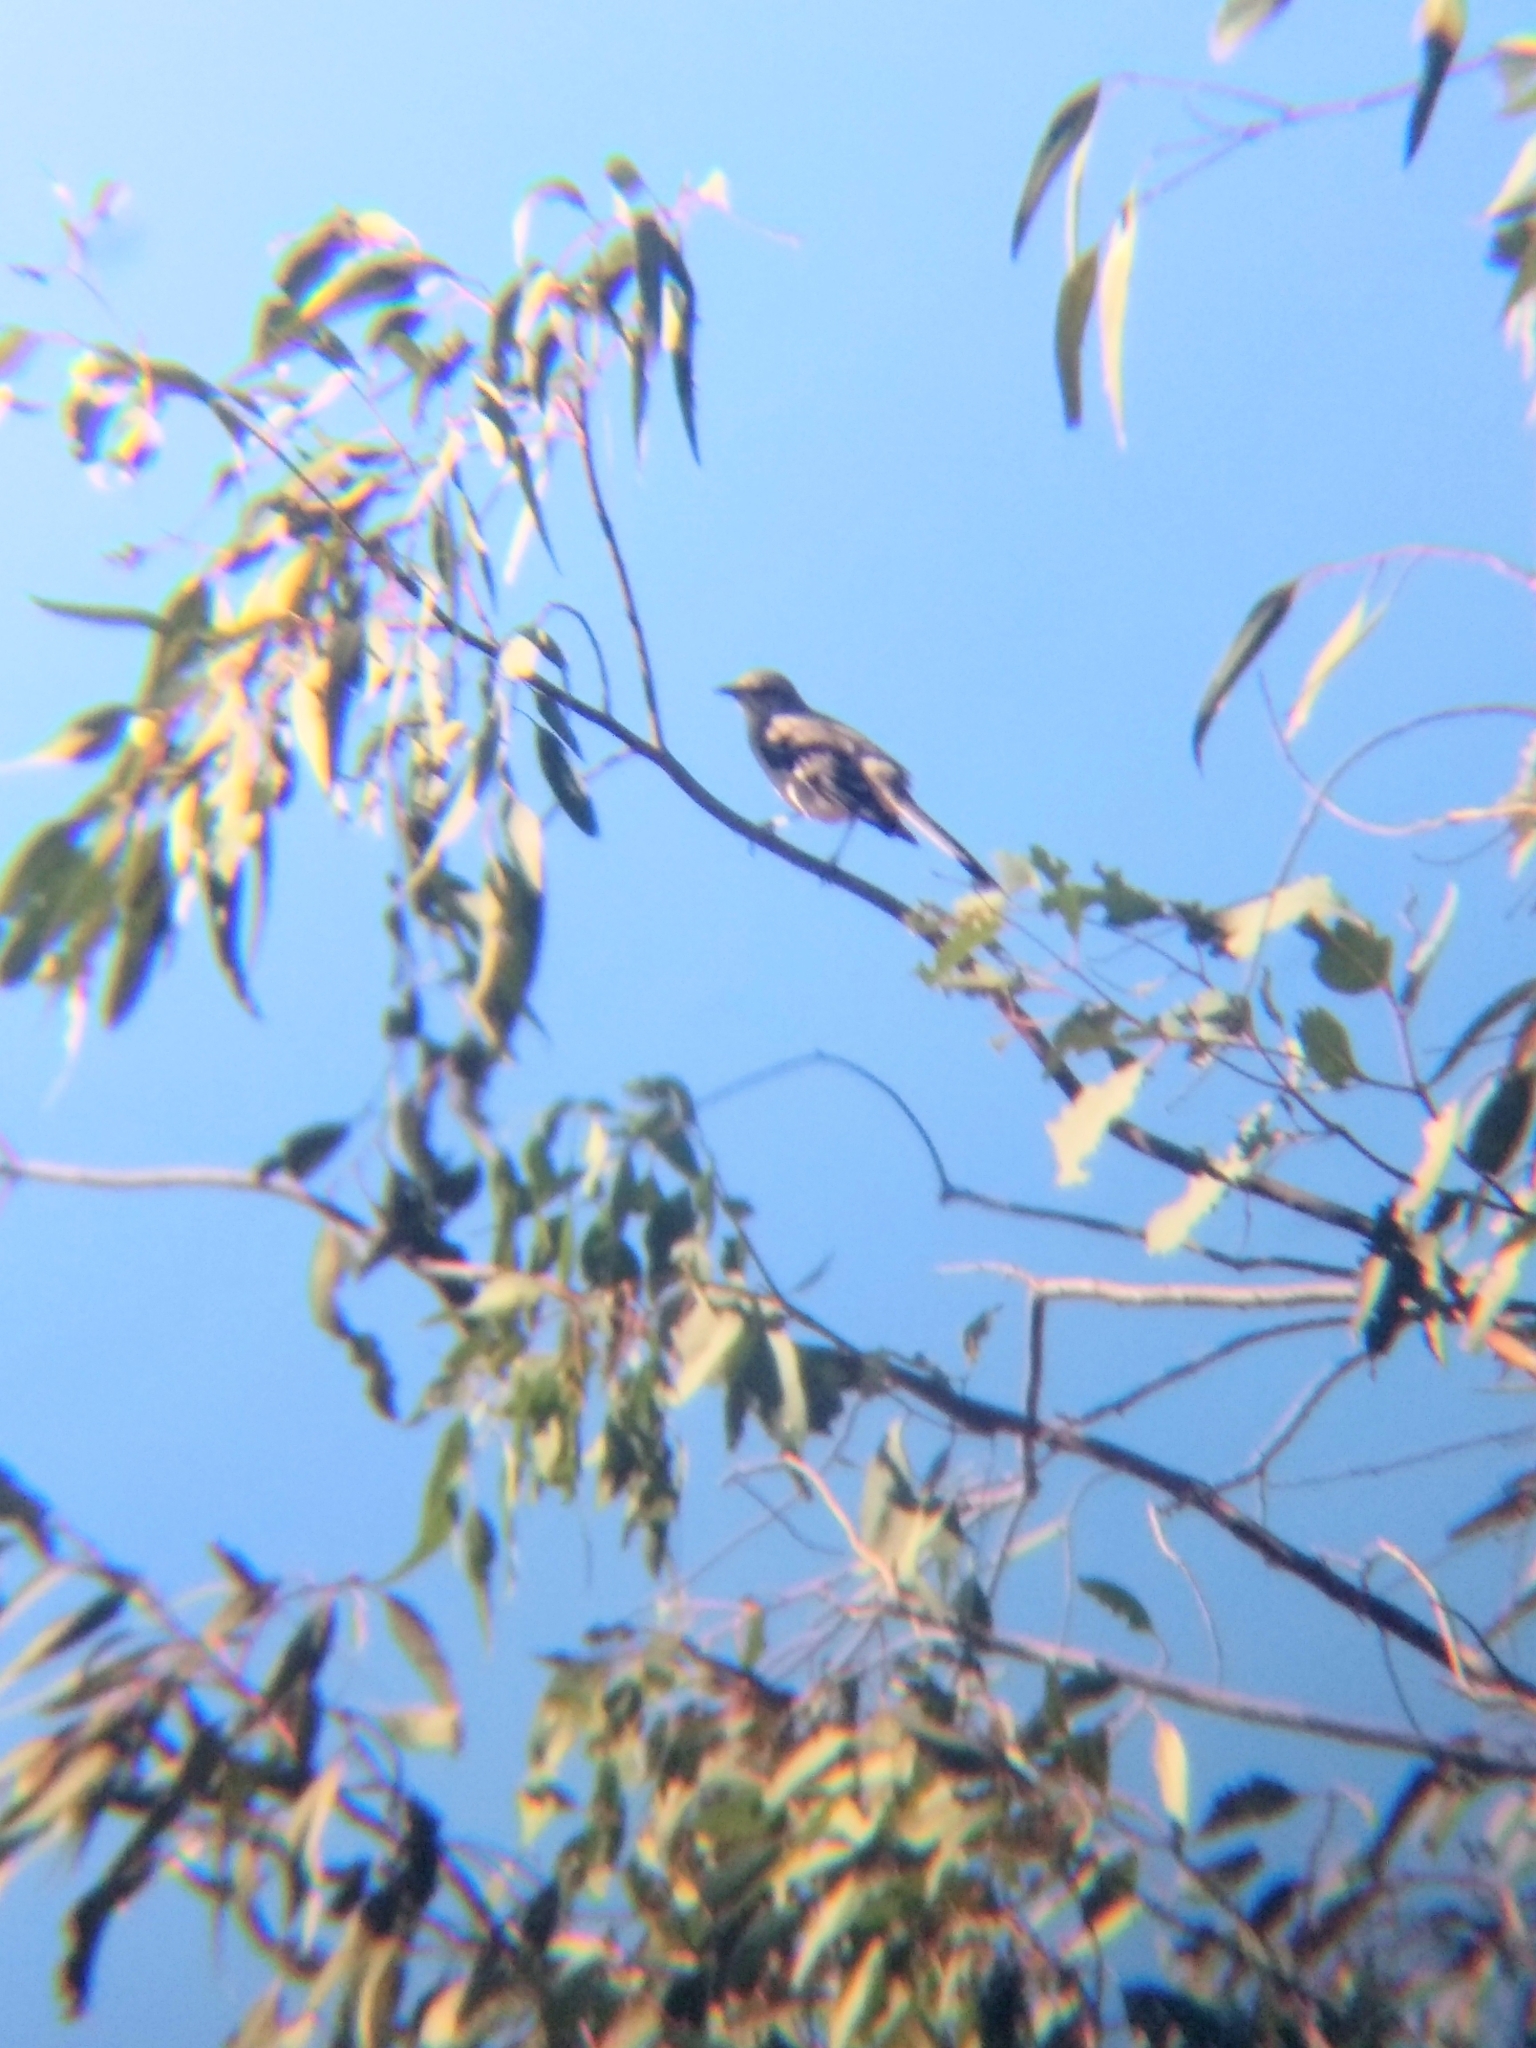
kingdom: Animalia
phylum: Chordata
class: Aves
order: Passeriformes
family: Mimidae
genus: Mimus
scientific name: Mimus polyglottos
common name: Northern mockingbird
